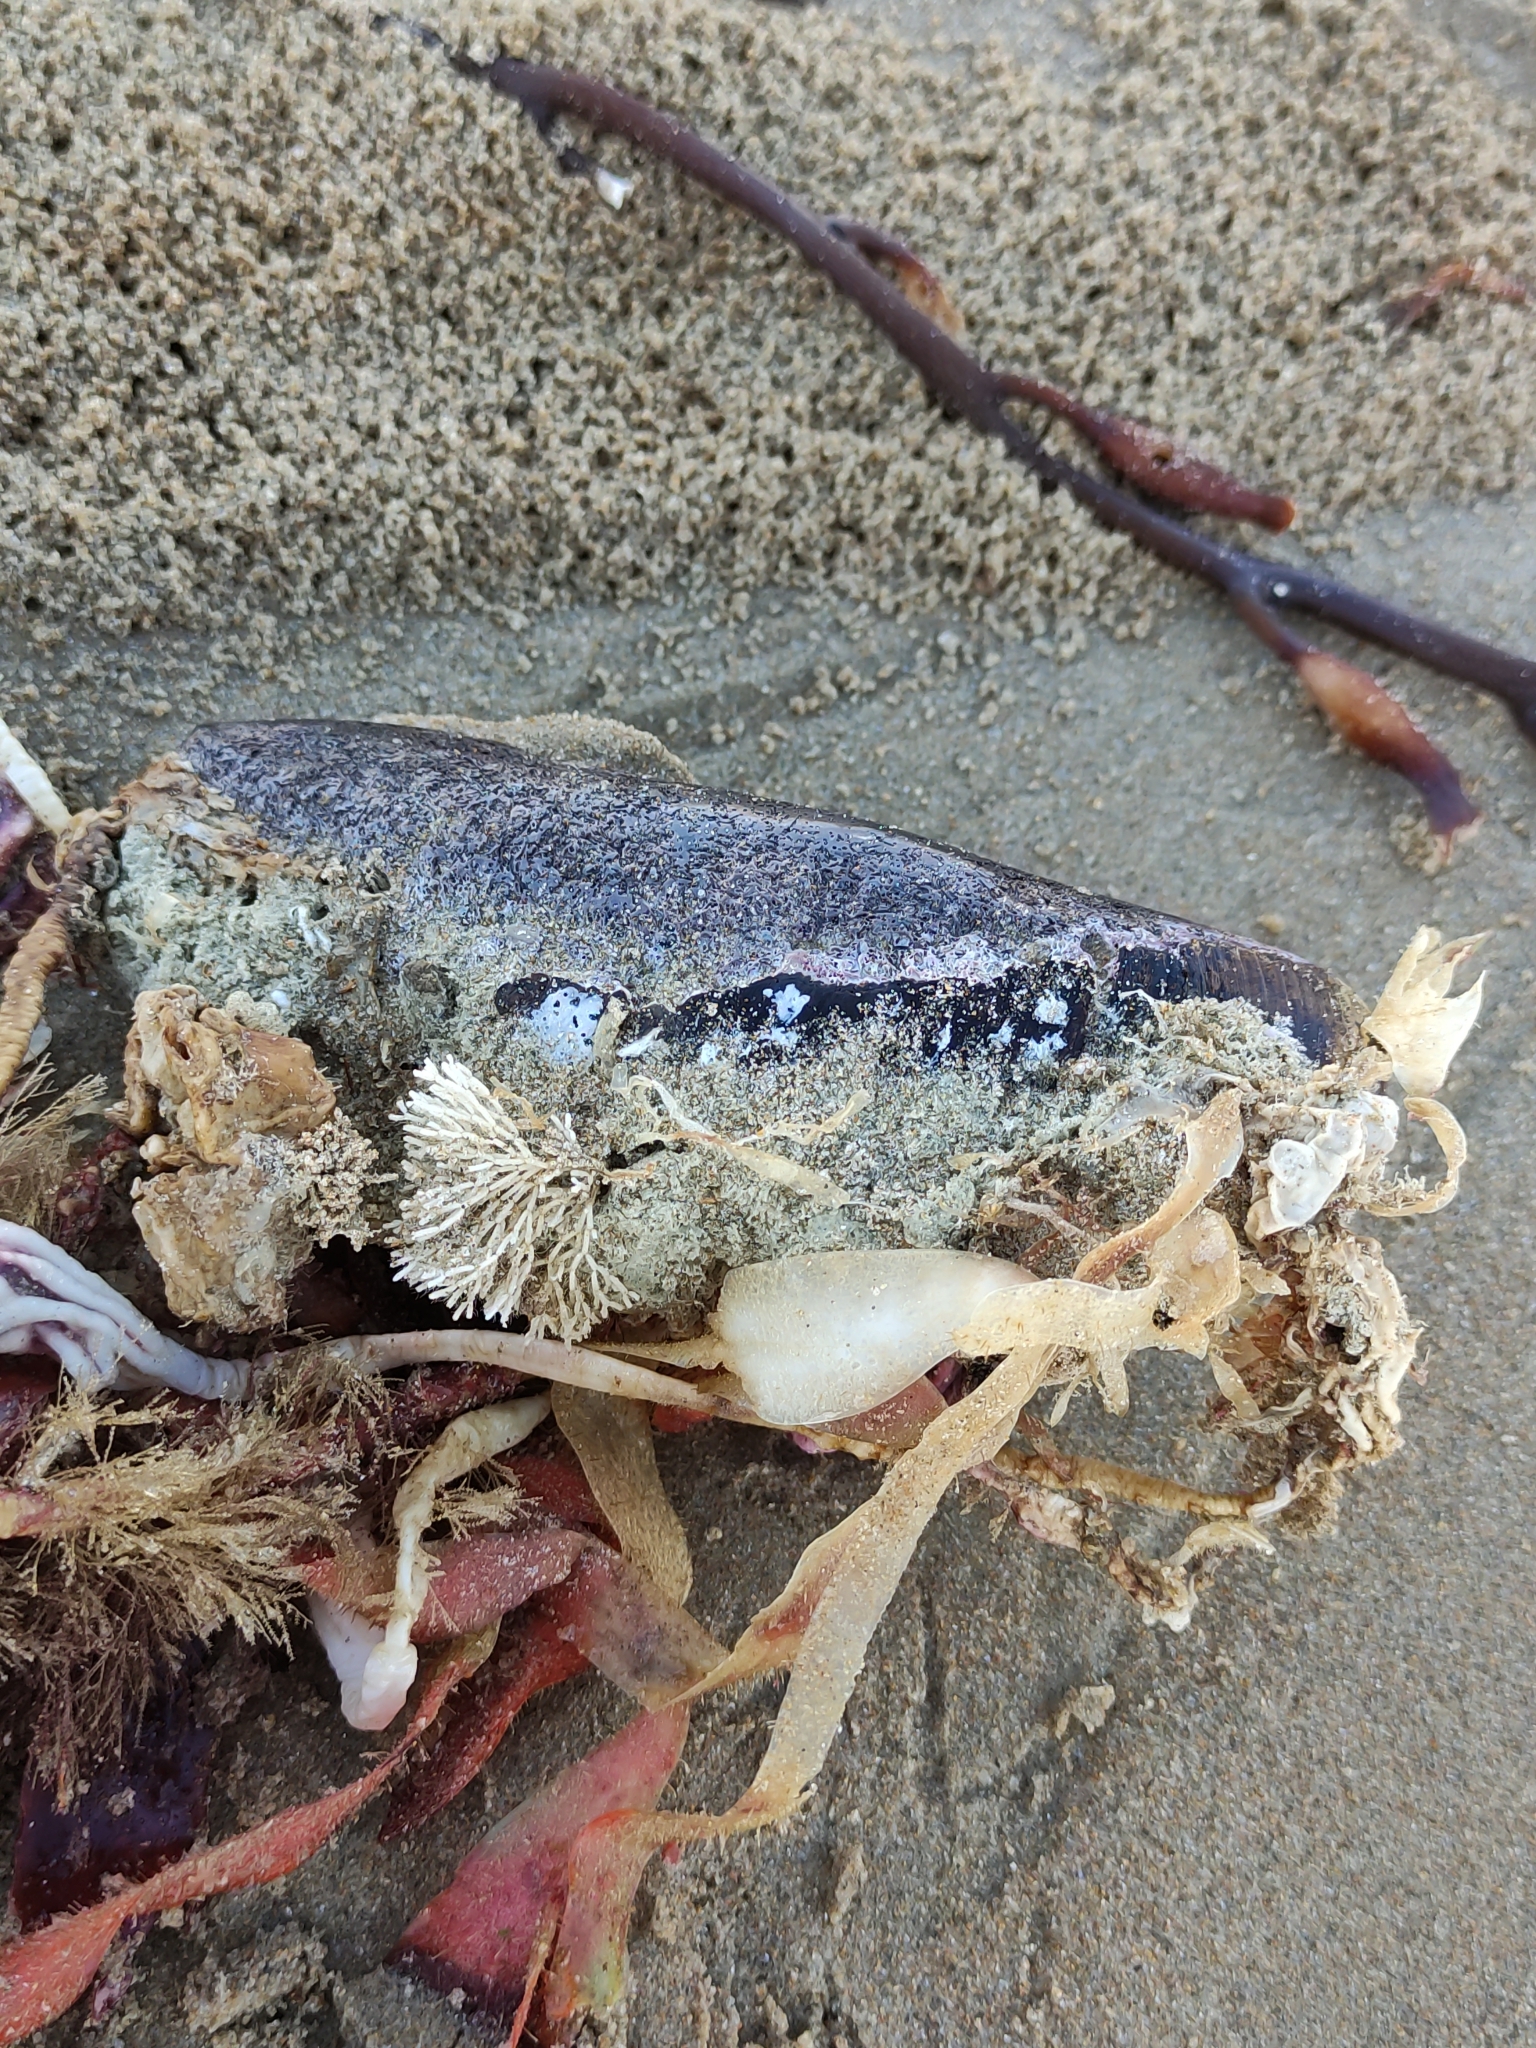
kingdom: Animalia
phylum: Mollusca
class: Bivalvia
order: Mytilida
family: Mytilidae
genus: Perna
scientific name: Perna canaliculus
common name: New zealand greenshelltm
